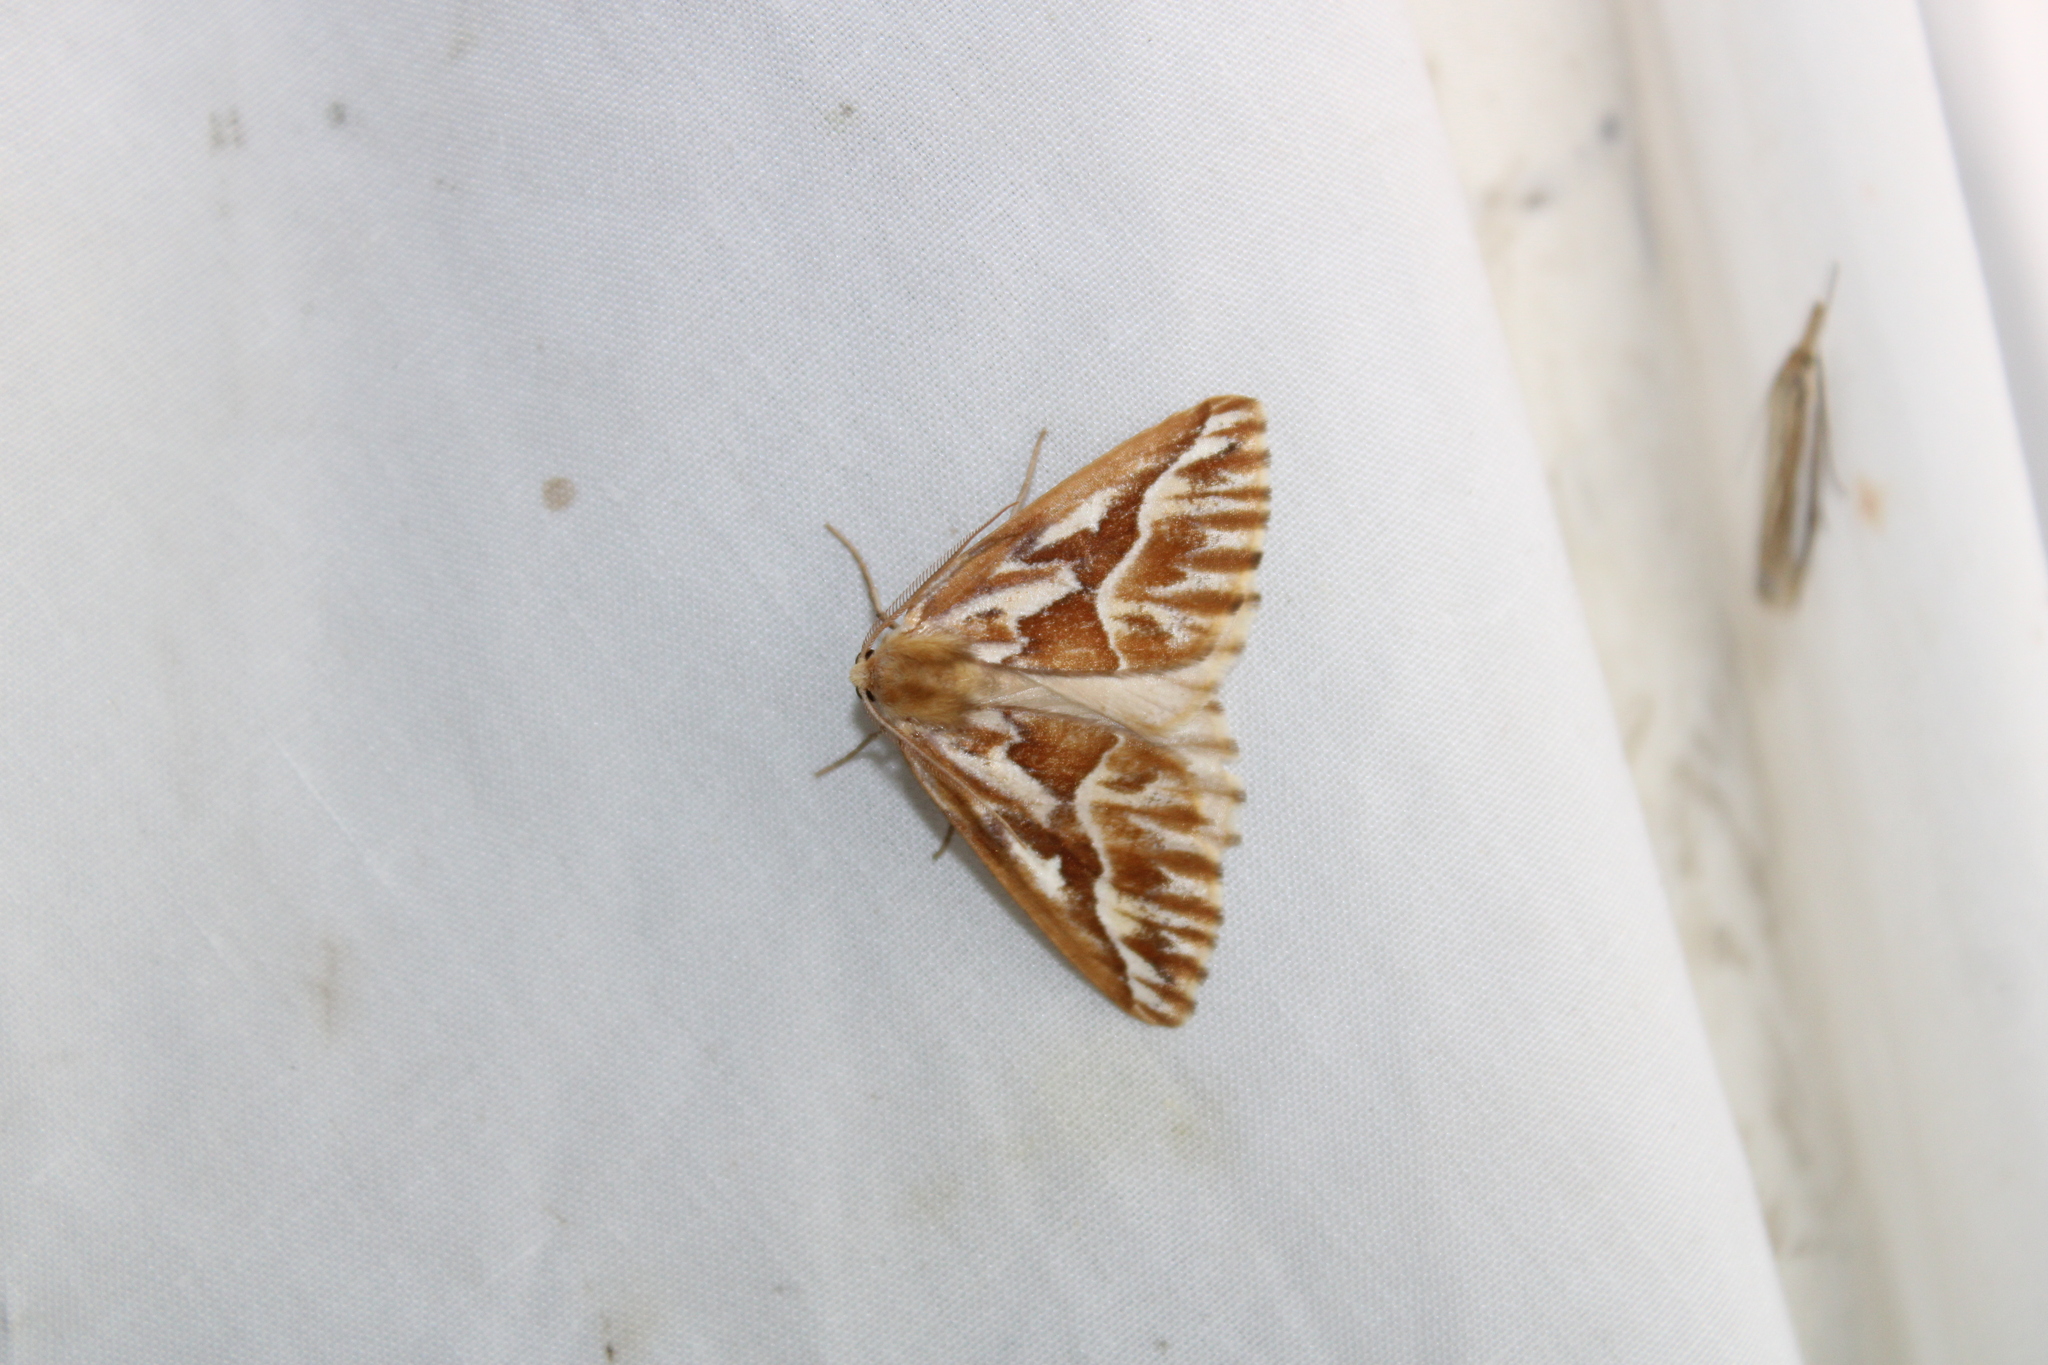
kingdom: Animalia
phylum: Arthropoda
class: Insecta
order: Lepidoptera
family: Geometridae
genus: Caripeta
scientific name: Caripeta piniata
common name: Northern pine looper moth
